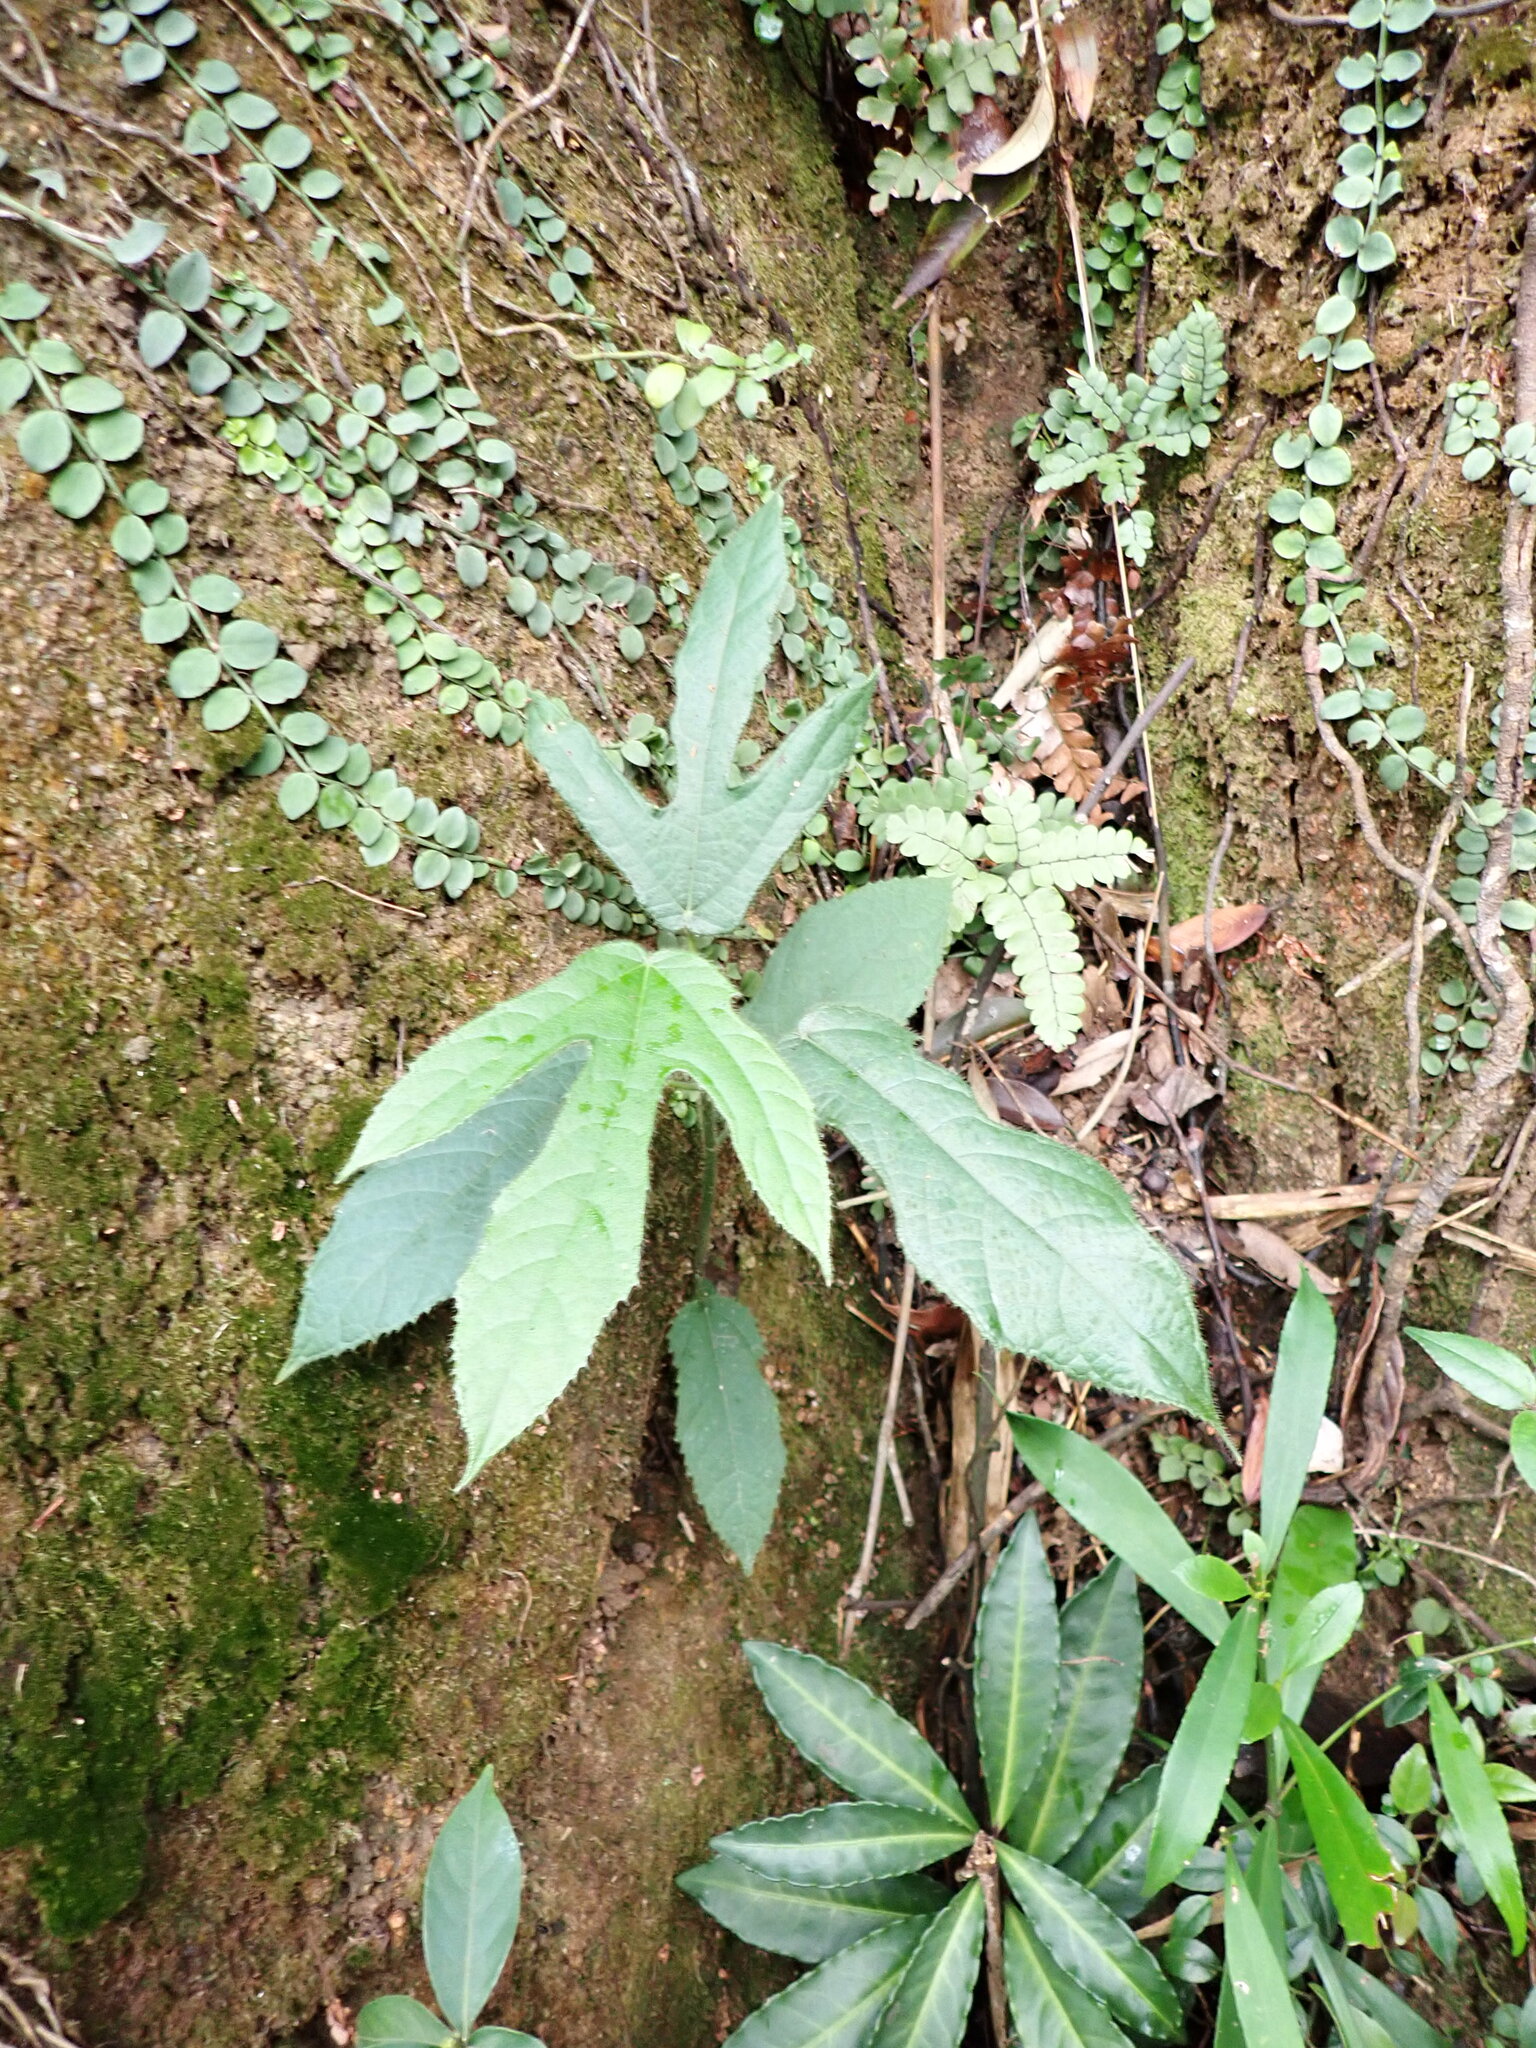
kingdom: Plantae
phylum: Tracheophyta
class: Magnoliopsida
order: Rosales
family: Moraceae
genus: Ficus
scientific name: Ficus simplicissima
